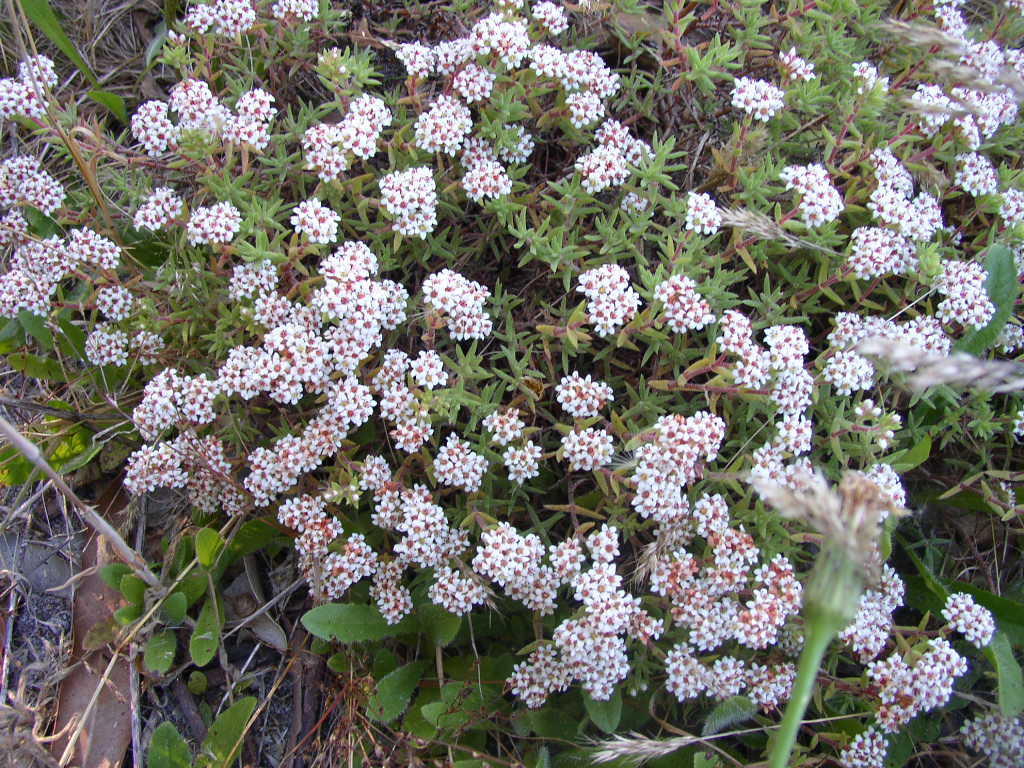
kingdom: Plantae
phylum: Tracheophyta
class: Magnoliopsida
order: Saxifragales
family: Crassulaceae
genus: Crassula
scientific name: Crassula pruinosa
